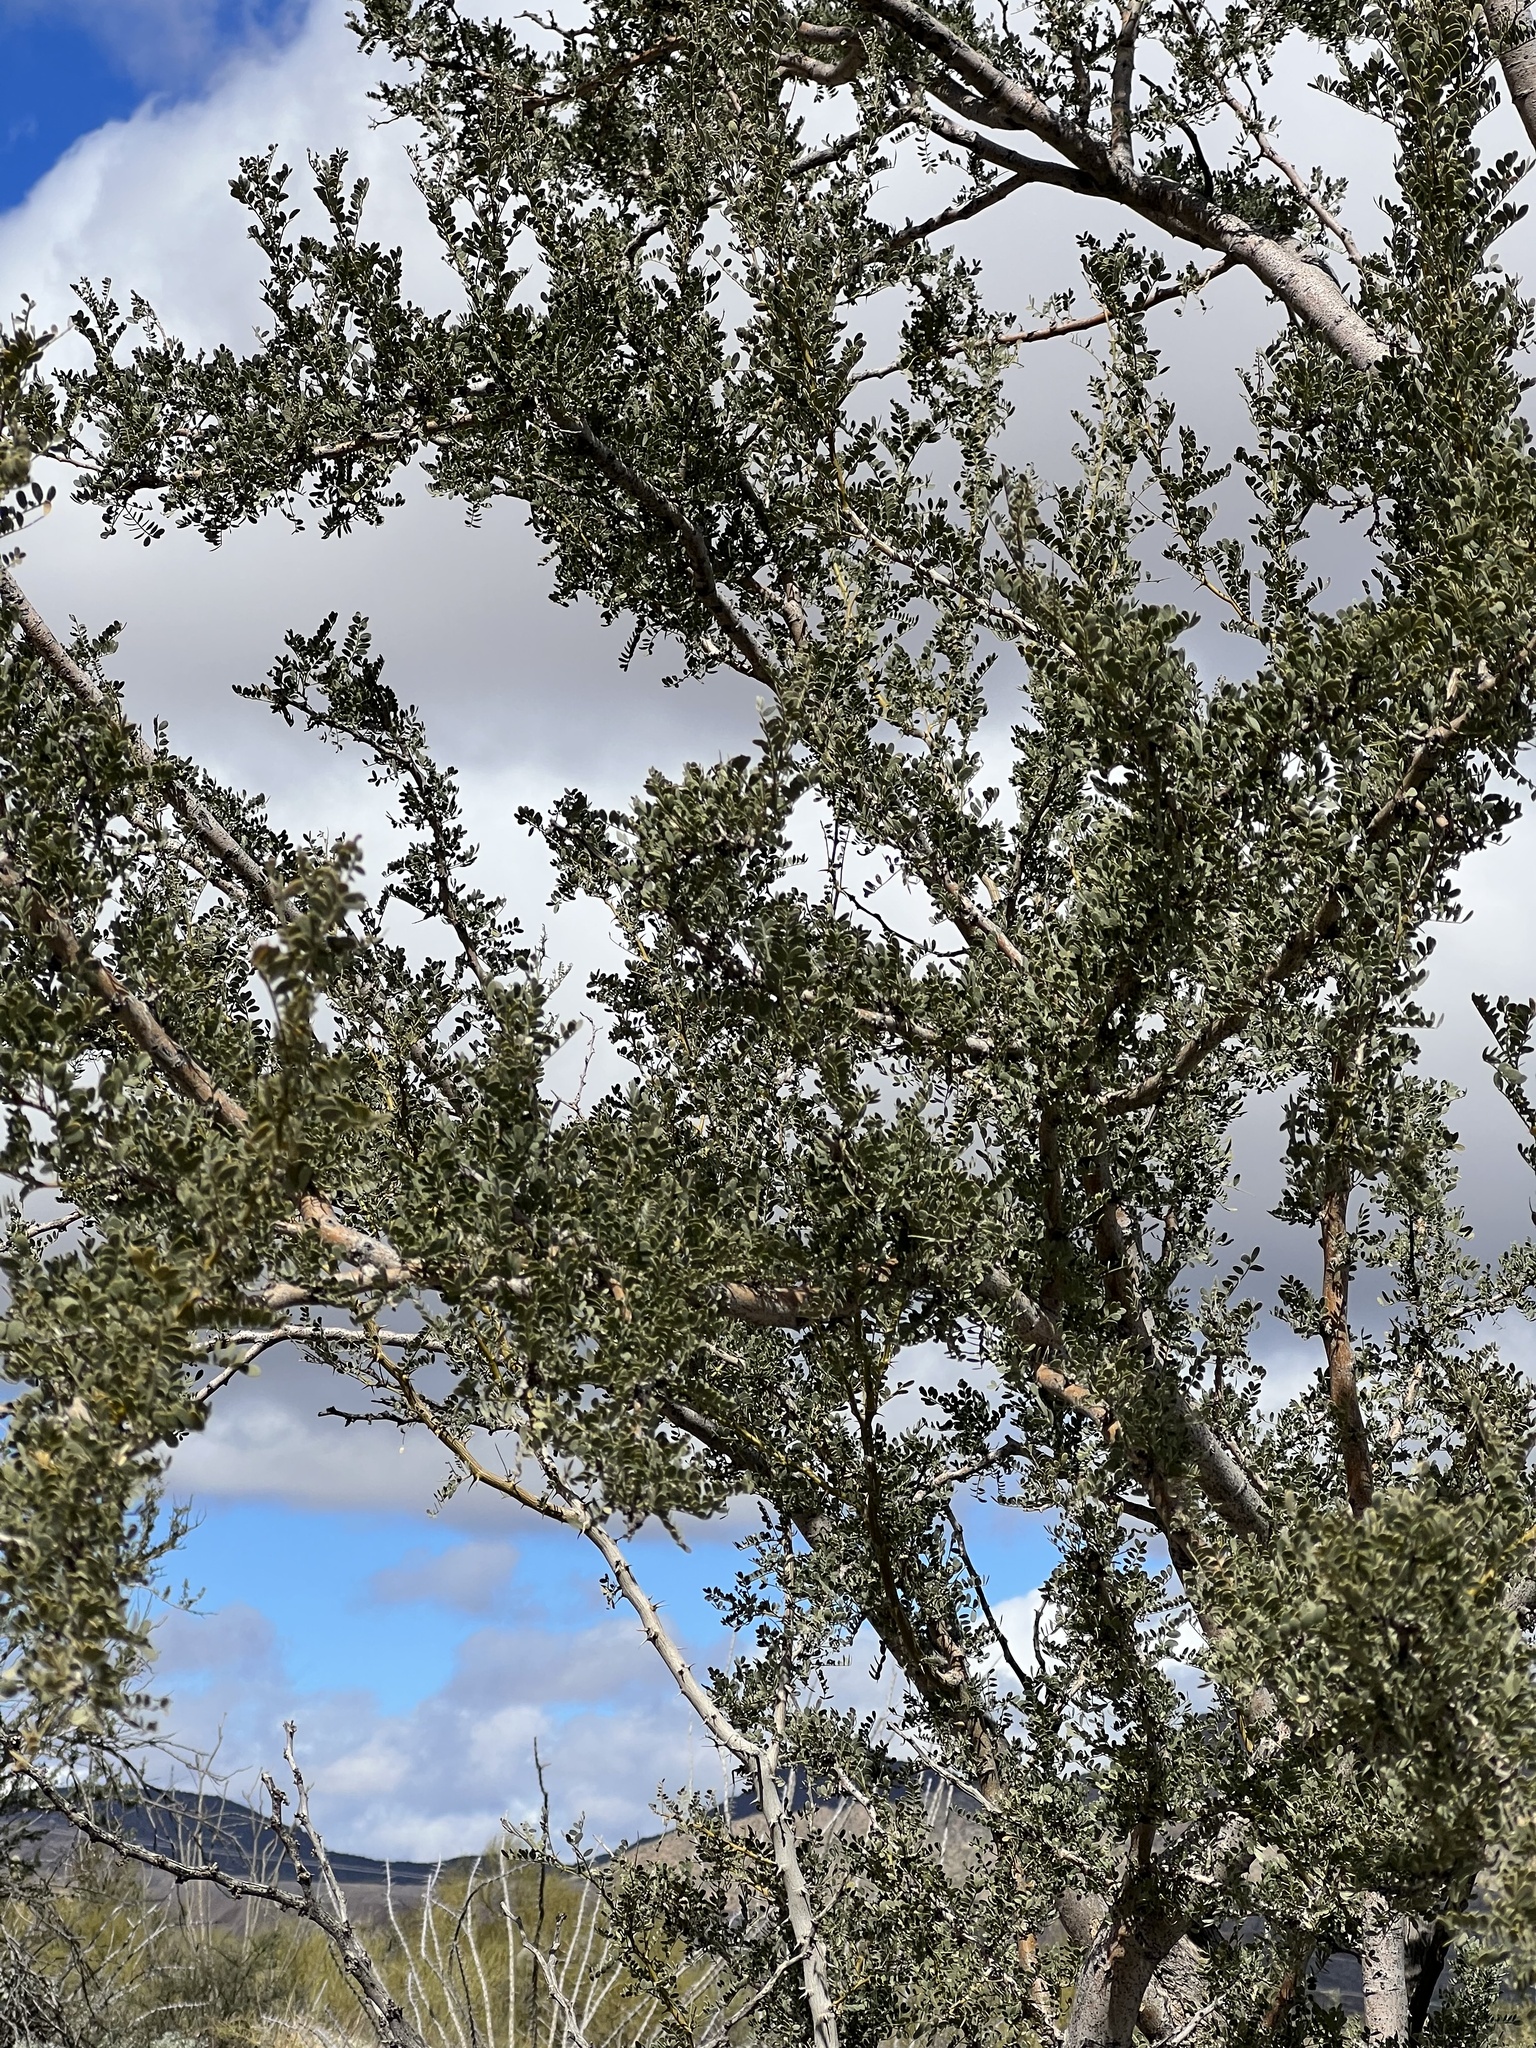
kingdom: Plantae
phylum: Tracheophyta
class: Magnoliopsida
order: Fabales
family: Fabaceae
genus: Olneya
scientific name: Olneya tesota
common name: Desert ironwood
